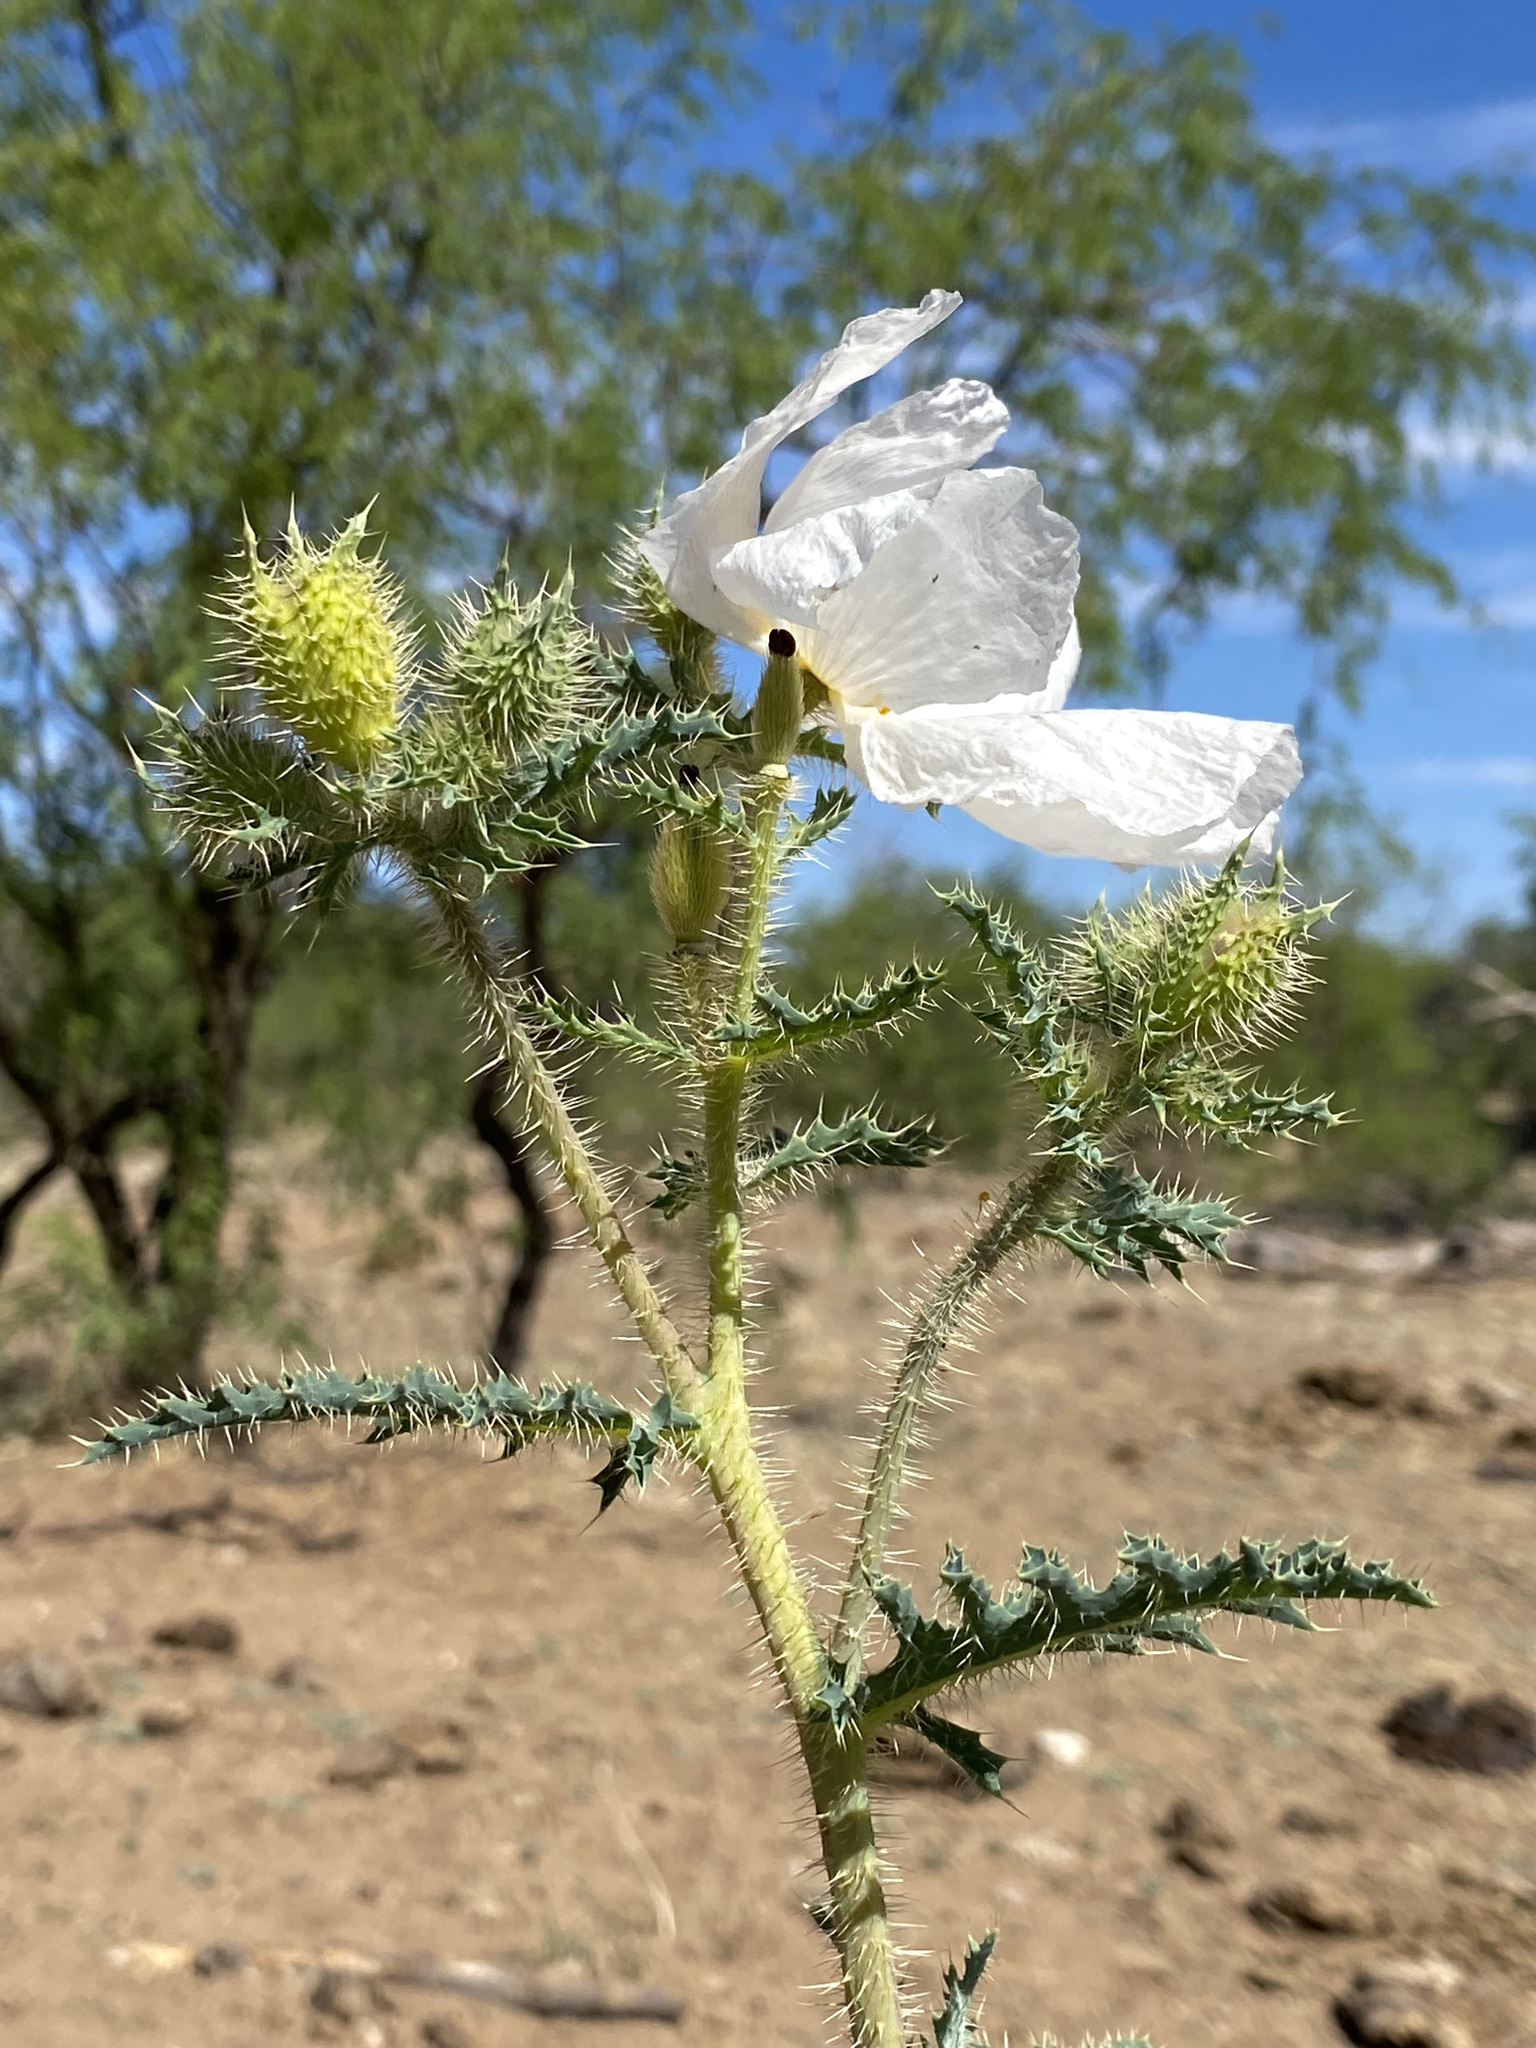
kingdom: Plantae
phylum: Tracheophyta
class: Magnoliopsida
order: Ranunculales
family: Papaveraceae
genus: Argemone
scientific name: Argemone pleiacantha
